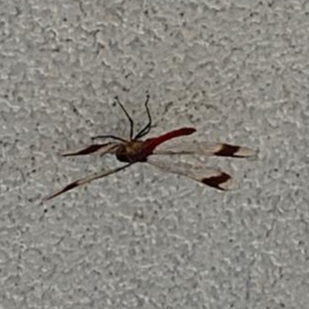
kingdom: Animalia
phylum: Arthropoda
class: Insecta
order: Odonata
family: Libellulidae
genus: Sympetrum
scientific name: Sympetrum pedemontanum
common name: Banded darter
